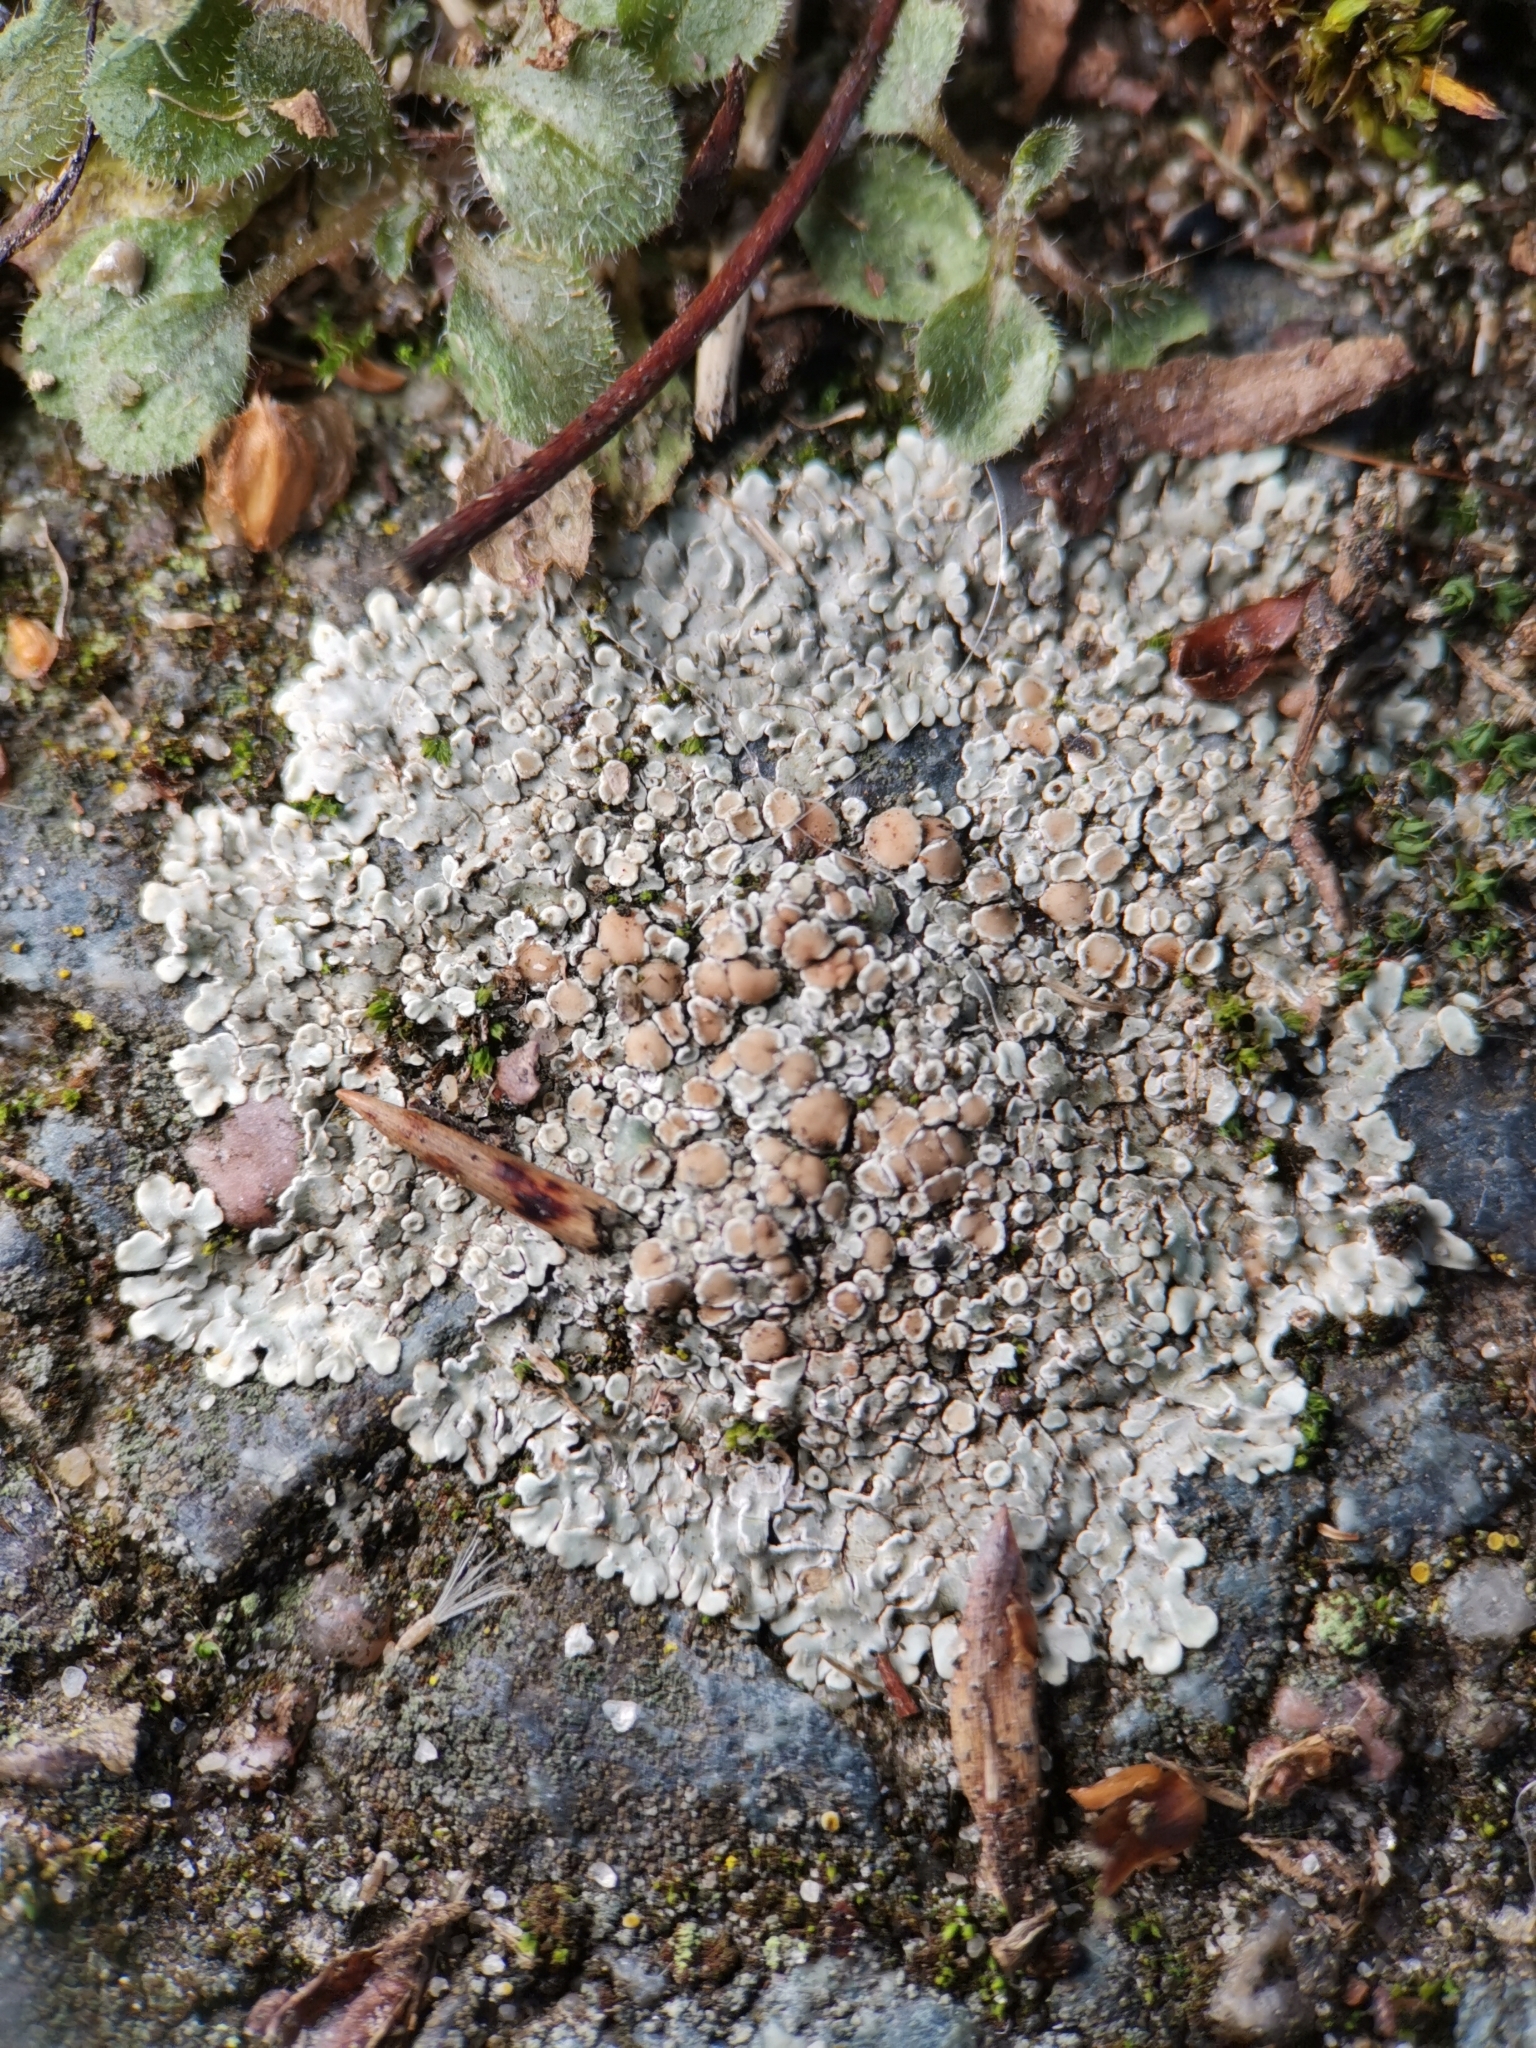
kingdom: Fungi
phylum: Ascomycota
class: Lecanoromycetes
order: Lecanorales
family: Lecanoraceae
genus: Protoparmeliopsis
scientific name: Protoparmeliopsis muralis
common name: Stonewall rim lichen
